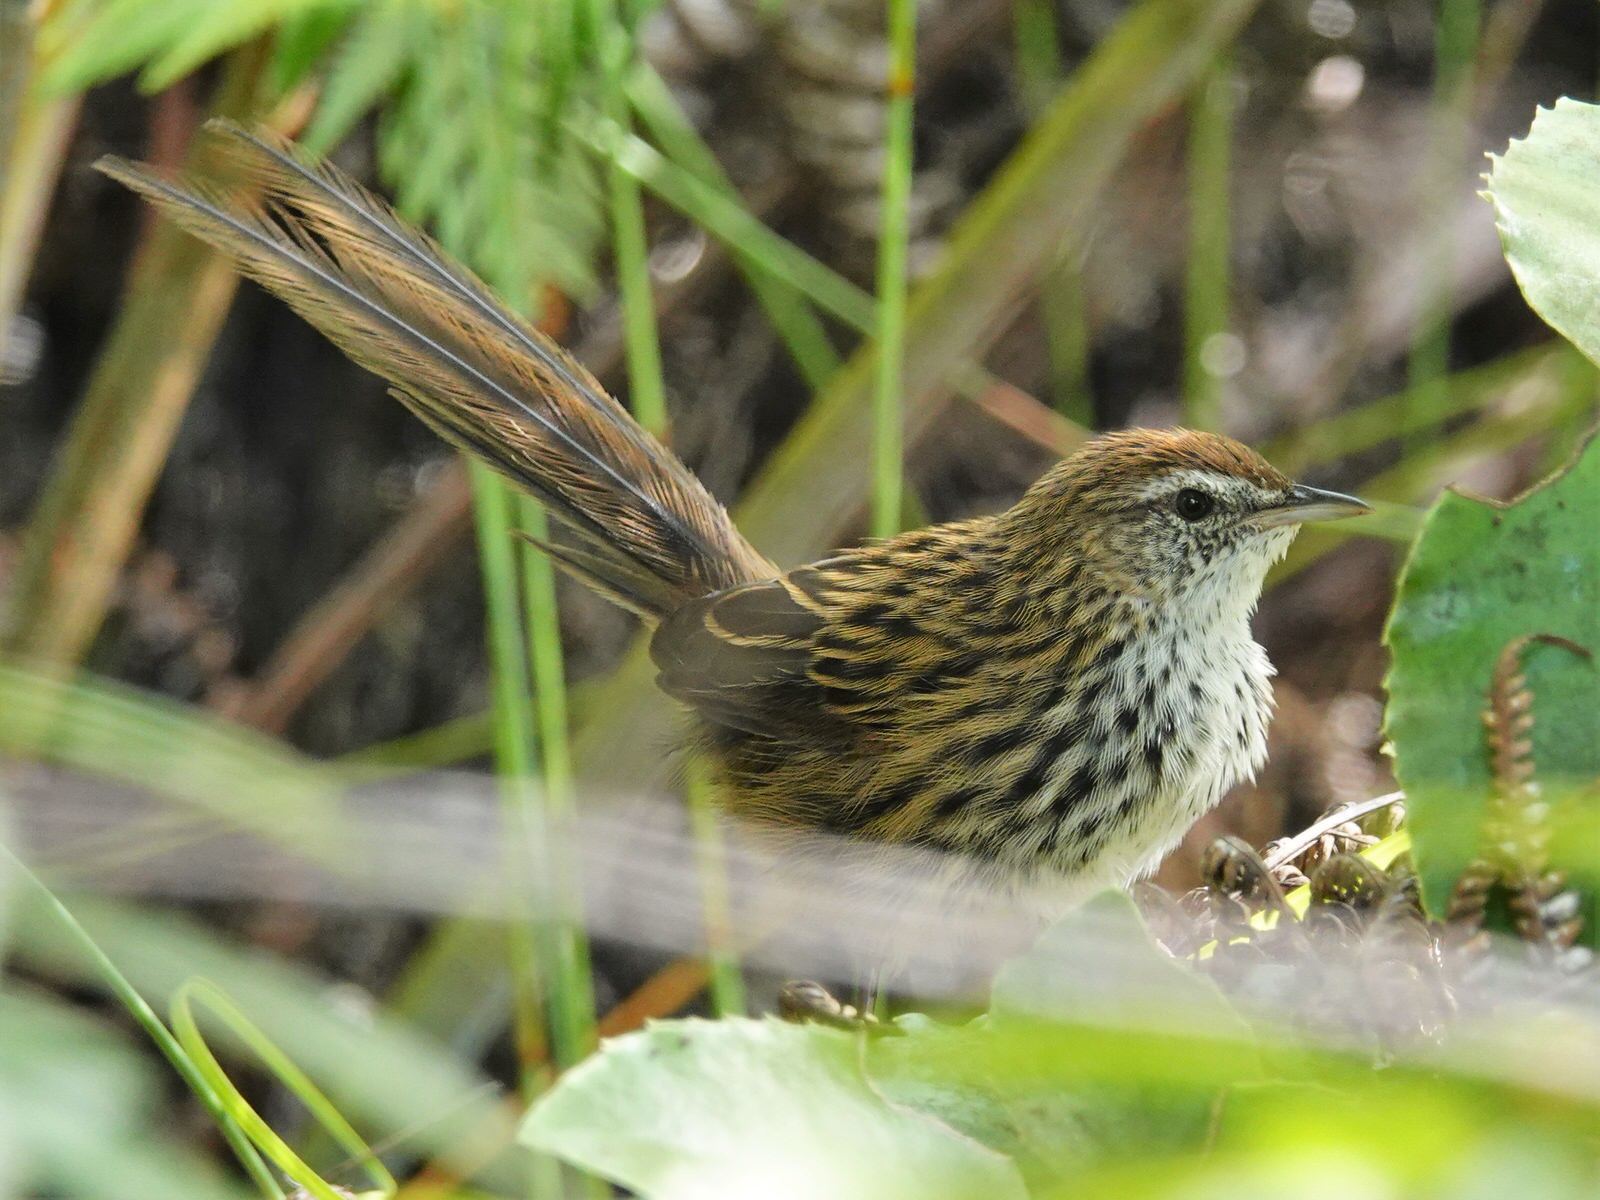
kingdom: Animalia
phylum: Chordata
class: Aves
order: Passeriformes
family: Locustellidae
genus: Megalurus
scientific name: Megalurus punctatus
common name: New zealand fernbird
